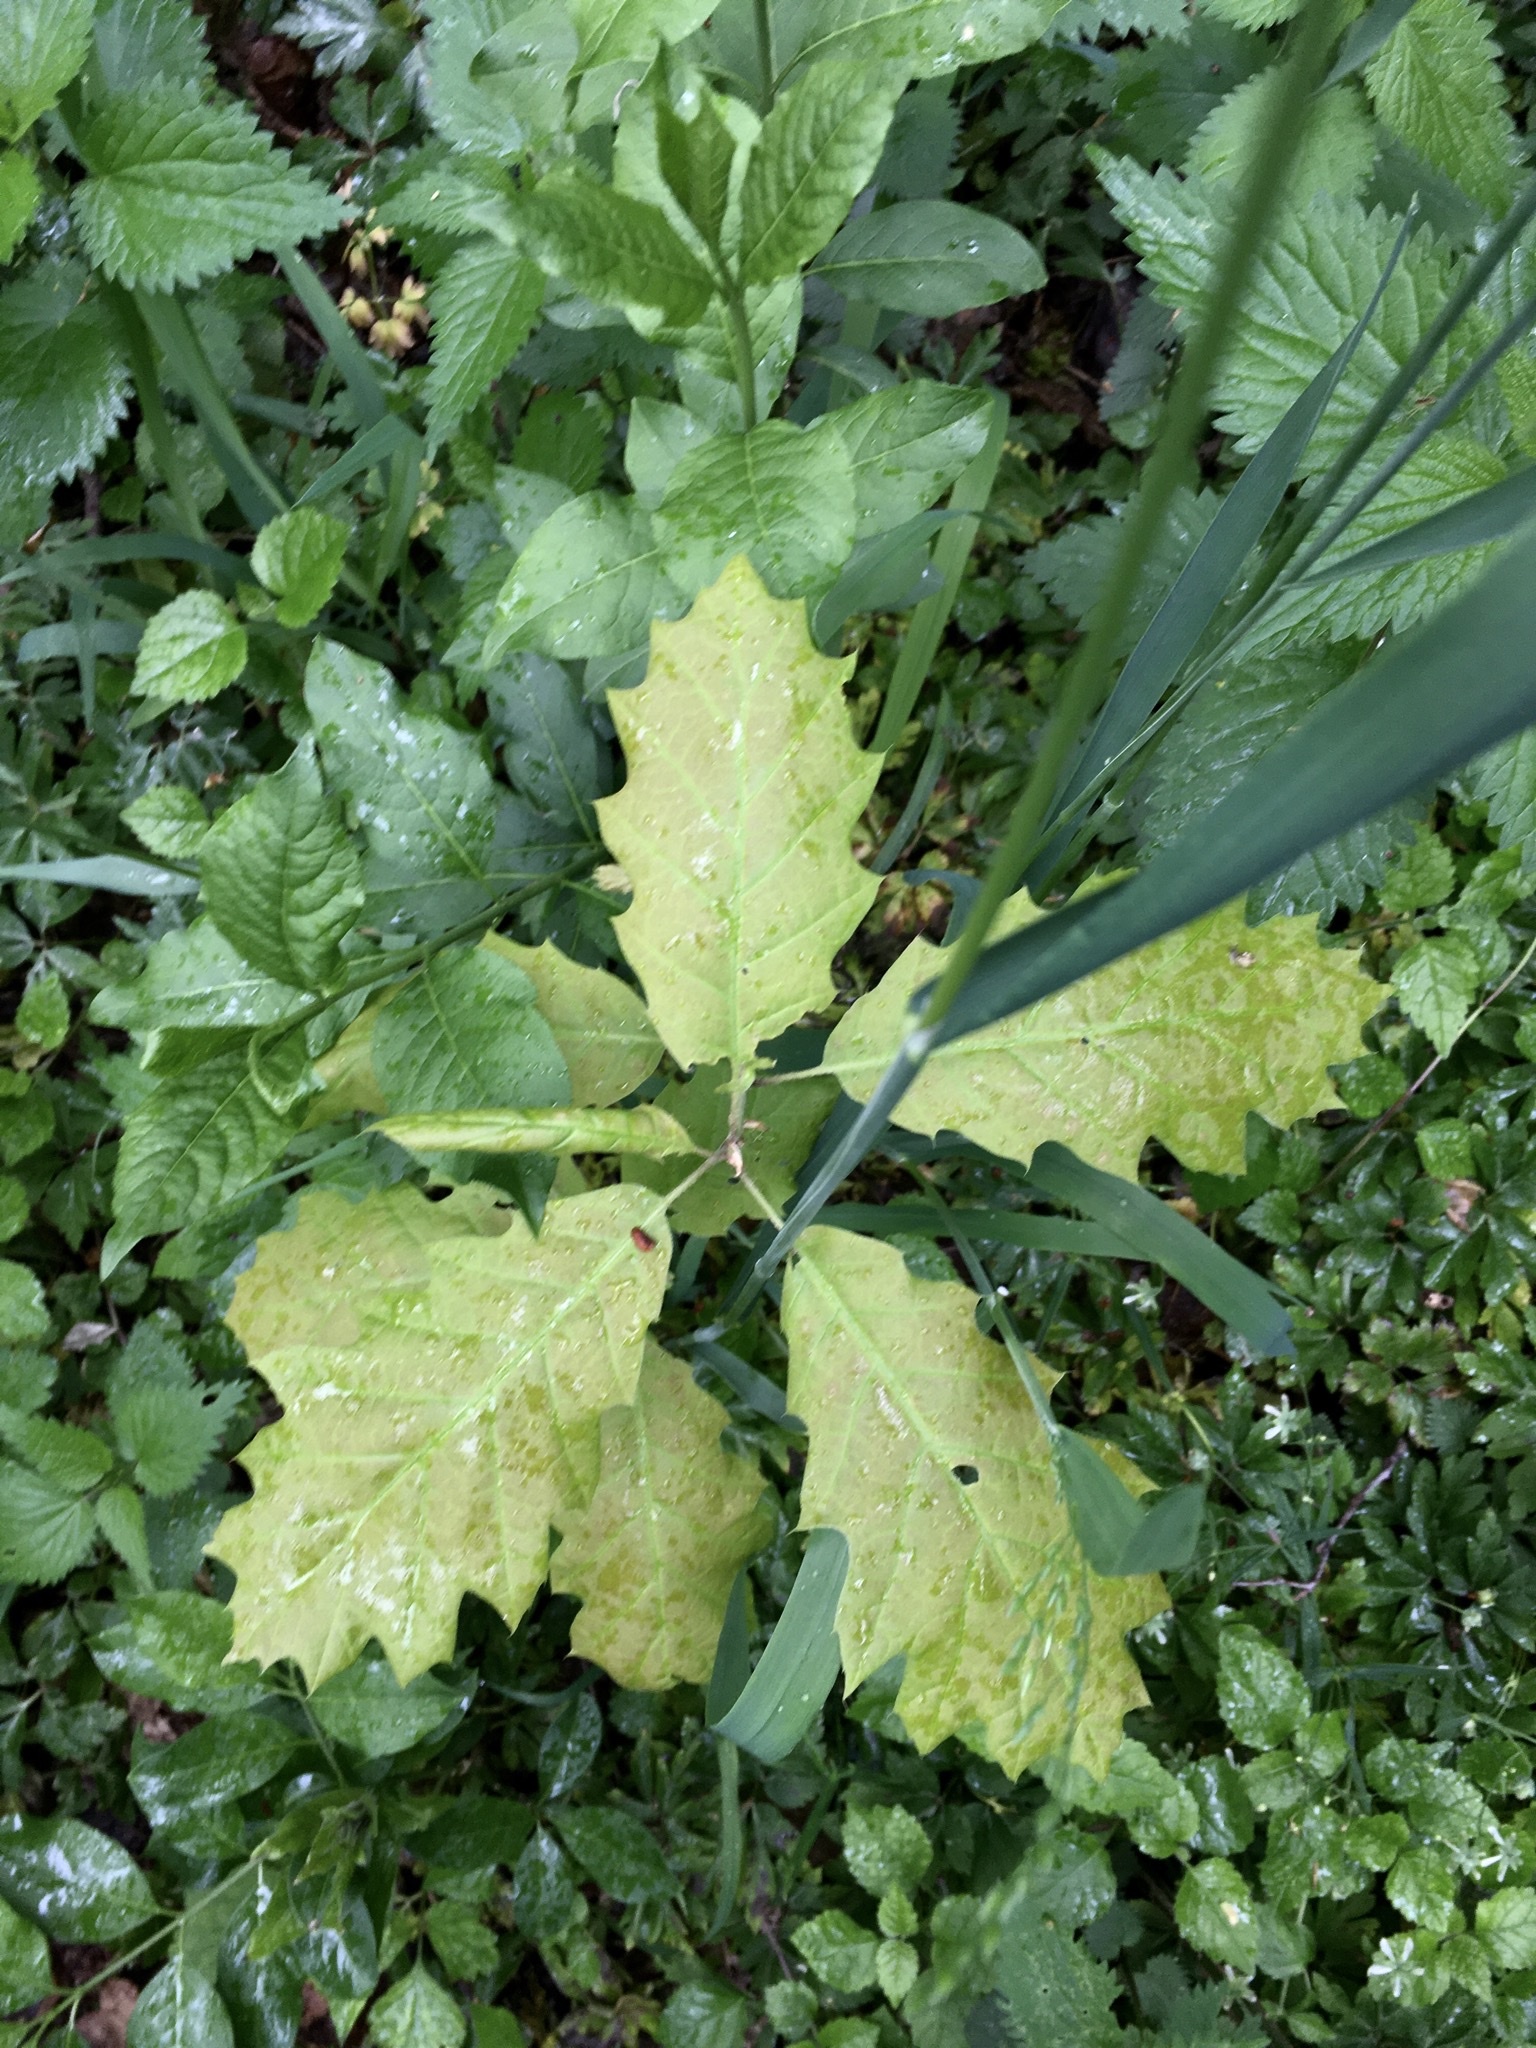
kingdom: Plantae
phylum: Tracheophyta
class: Magnoliopsida
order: Fagales
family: Fagaceae
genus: Quercus
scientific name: Quercus rubra
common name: Red oak
